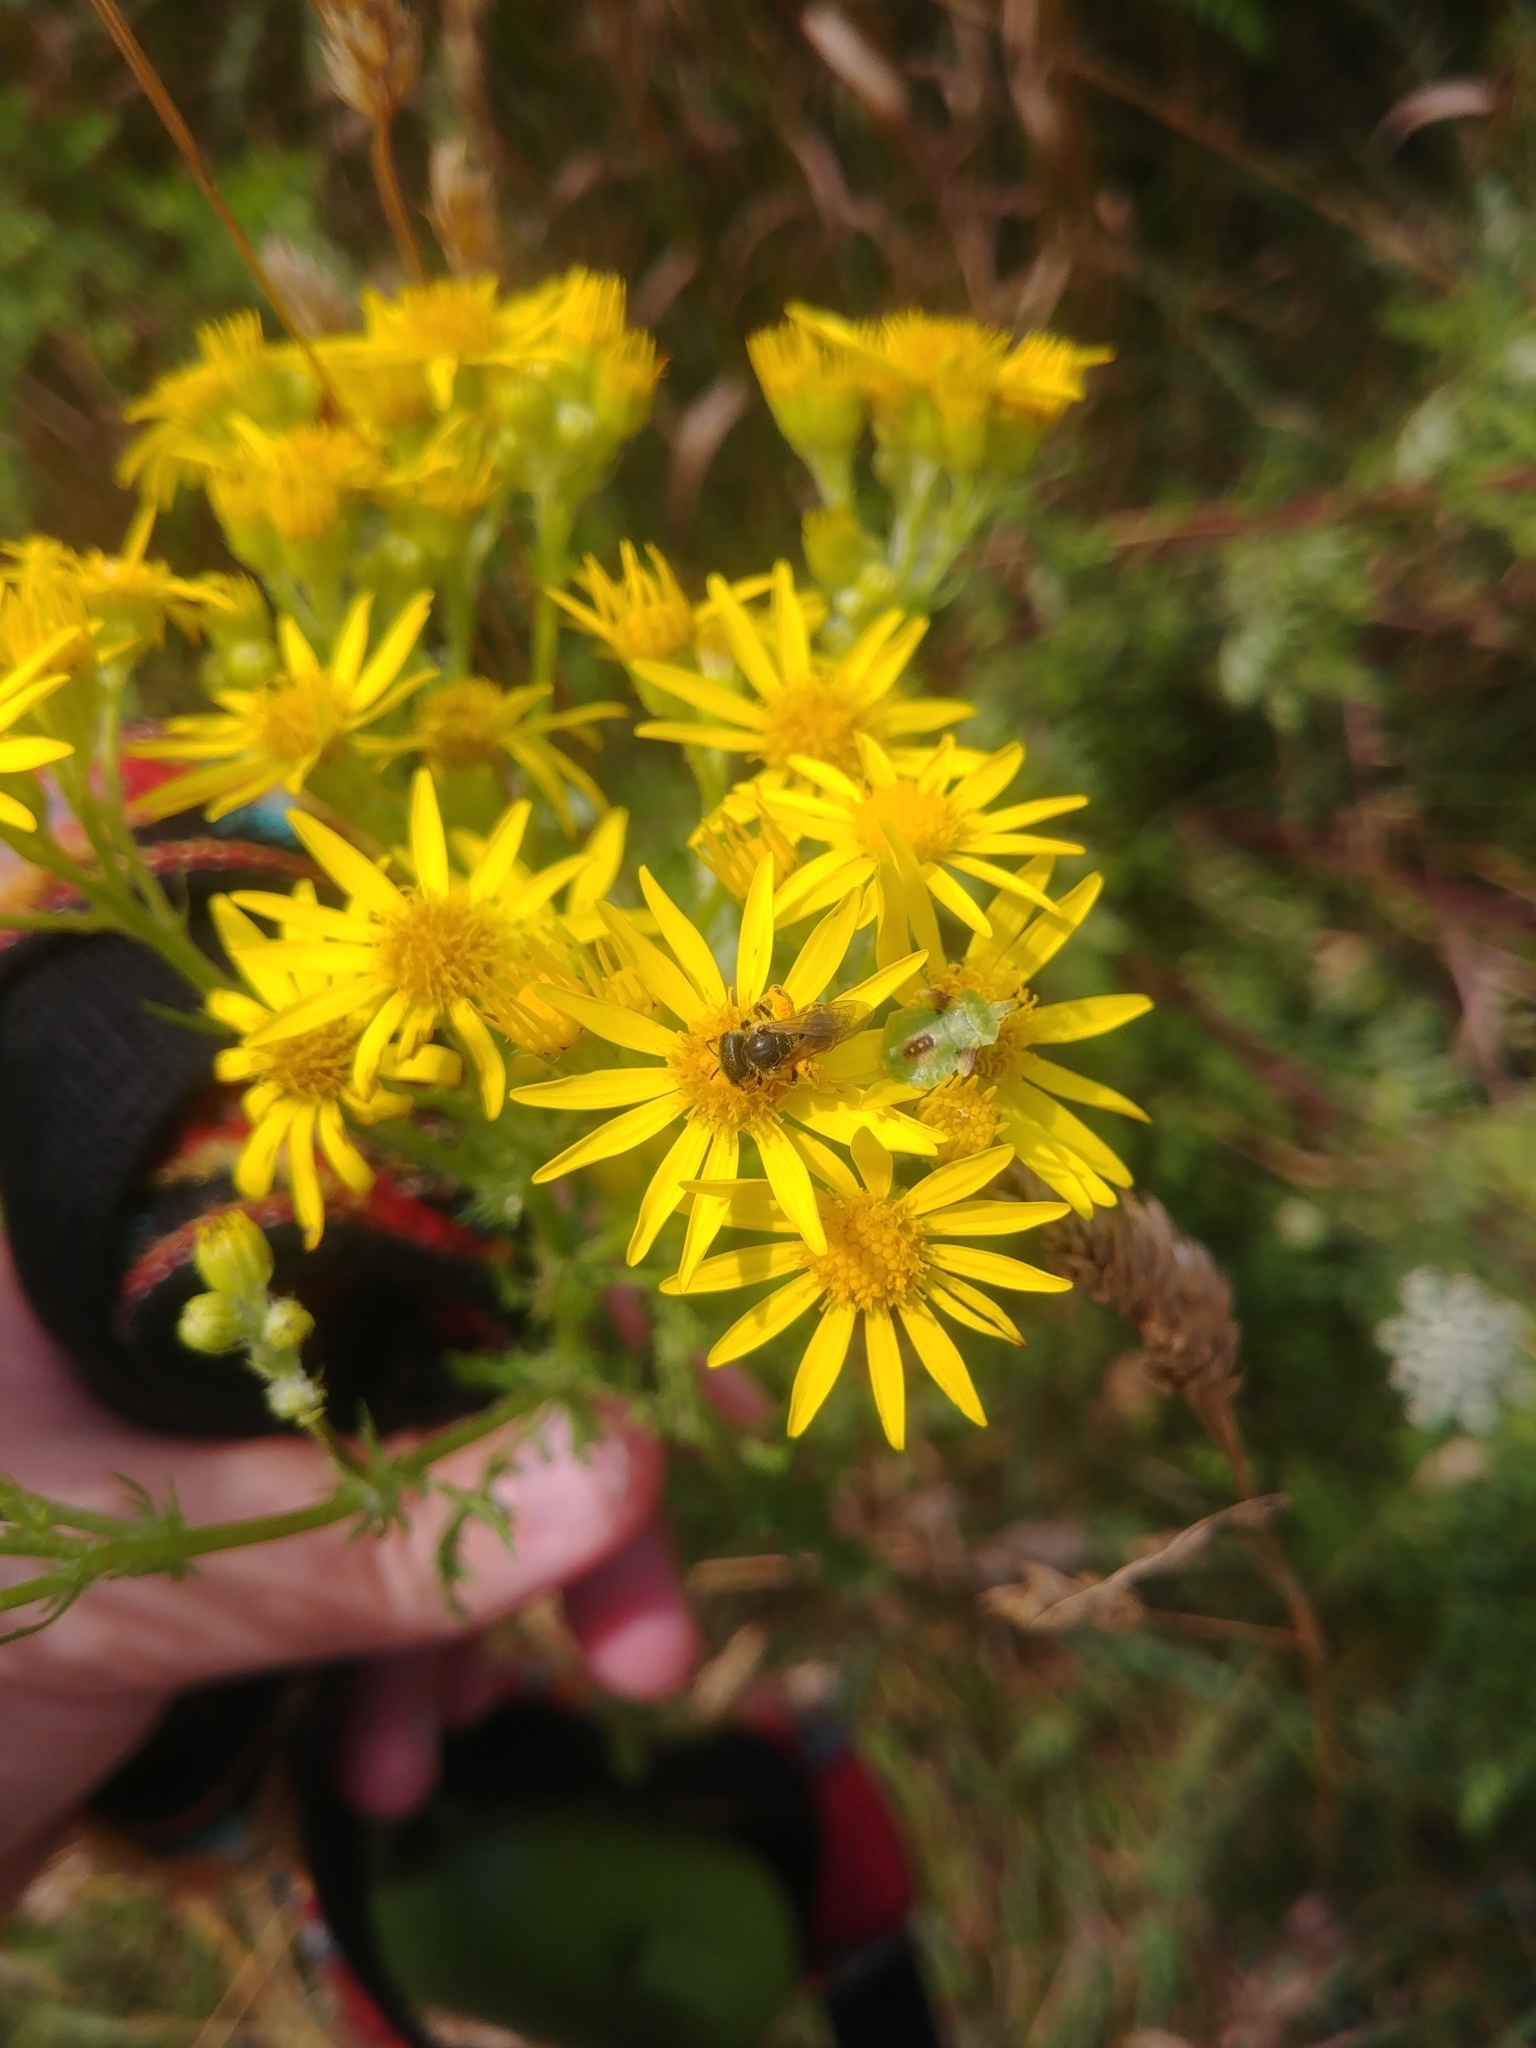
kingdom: Plantae
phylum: Tracheophyta
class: Magnoliopsida
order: Asterales
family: Asteraceae
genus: Jacobaea
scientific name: Jacobaea vulgaris
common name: Stinking willie
